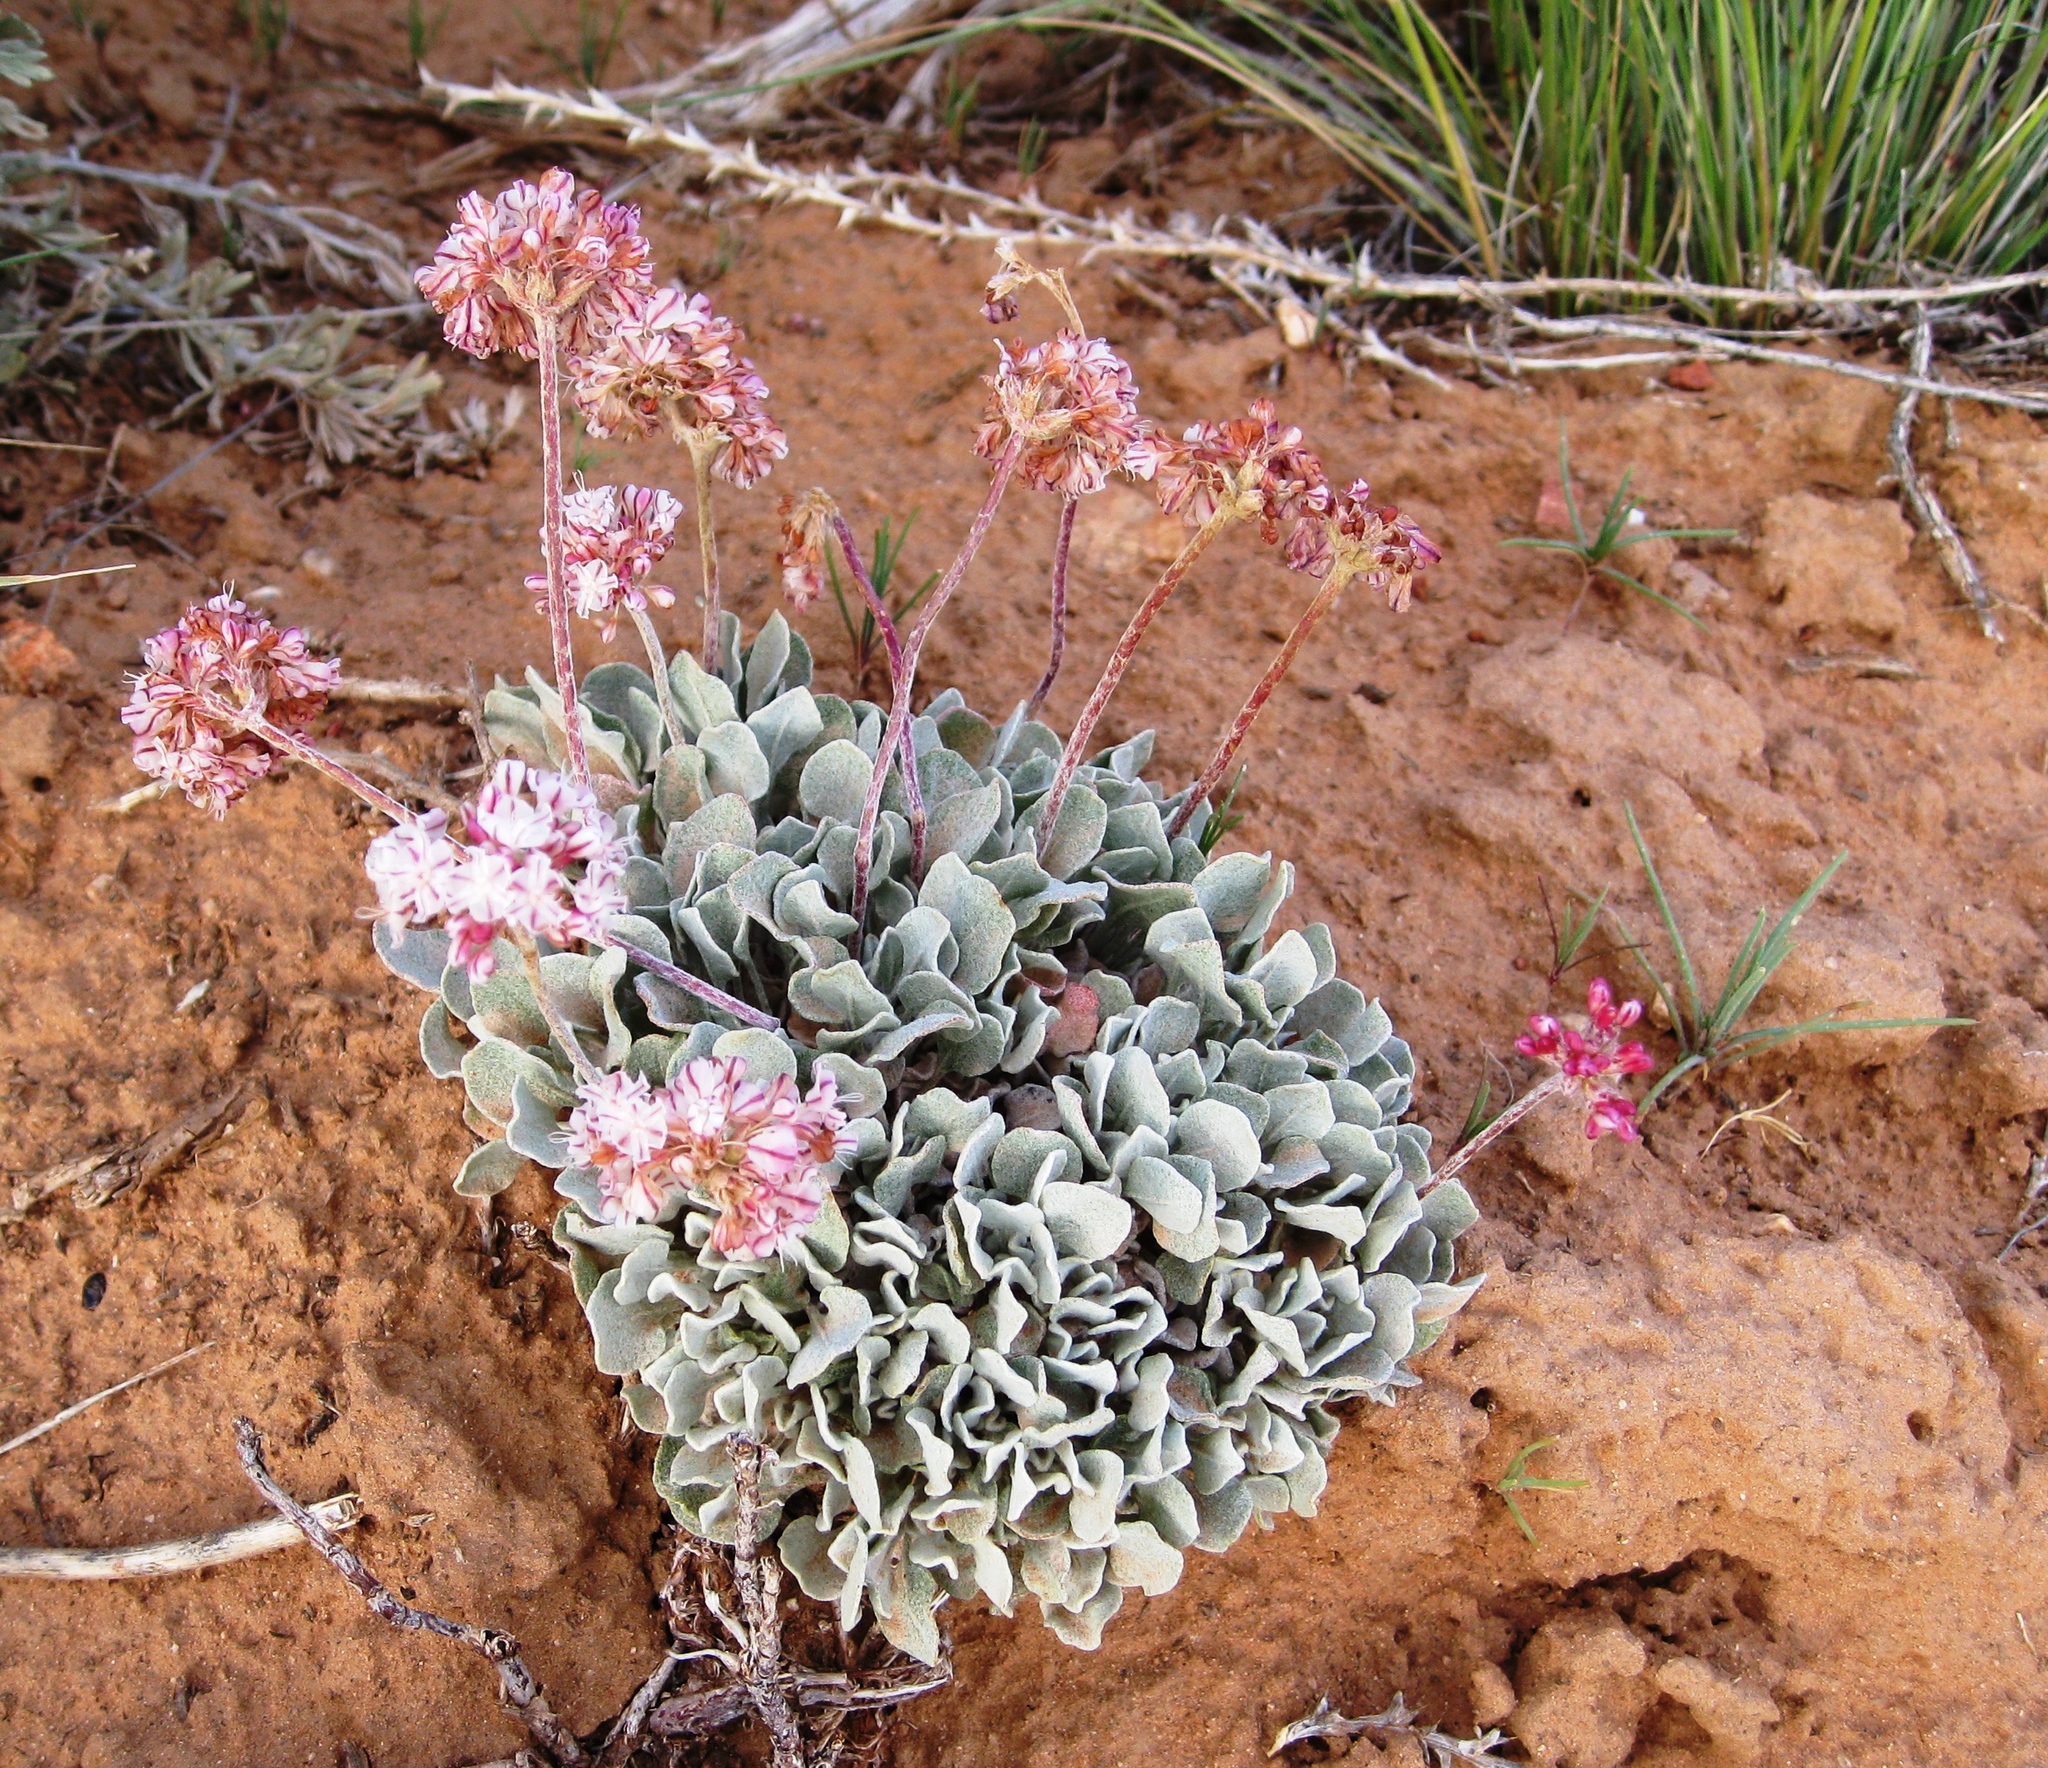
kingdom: Plantae
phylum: Tracheophyta
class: Magnoliopsida
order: Caryophyllales
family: Polygonaceae
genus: Eriogonum
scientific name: Eriogonum ovalifolium
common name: Cushion buckwheat
